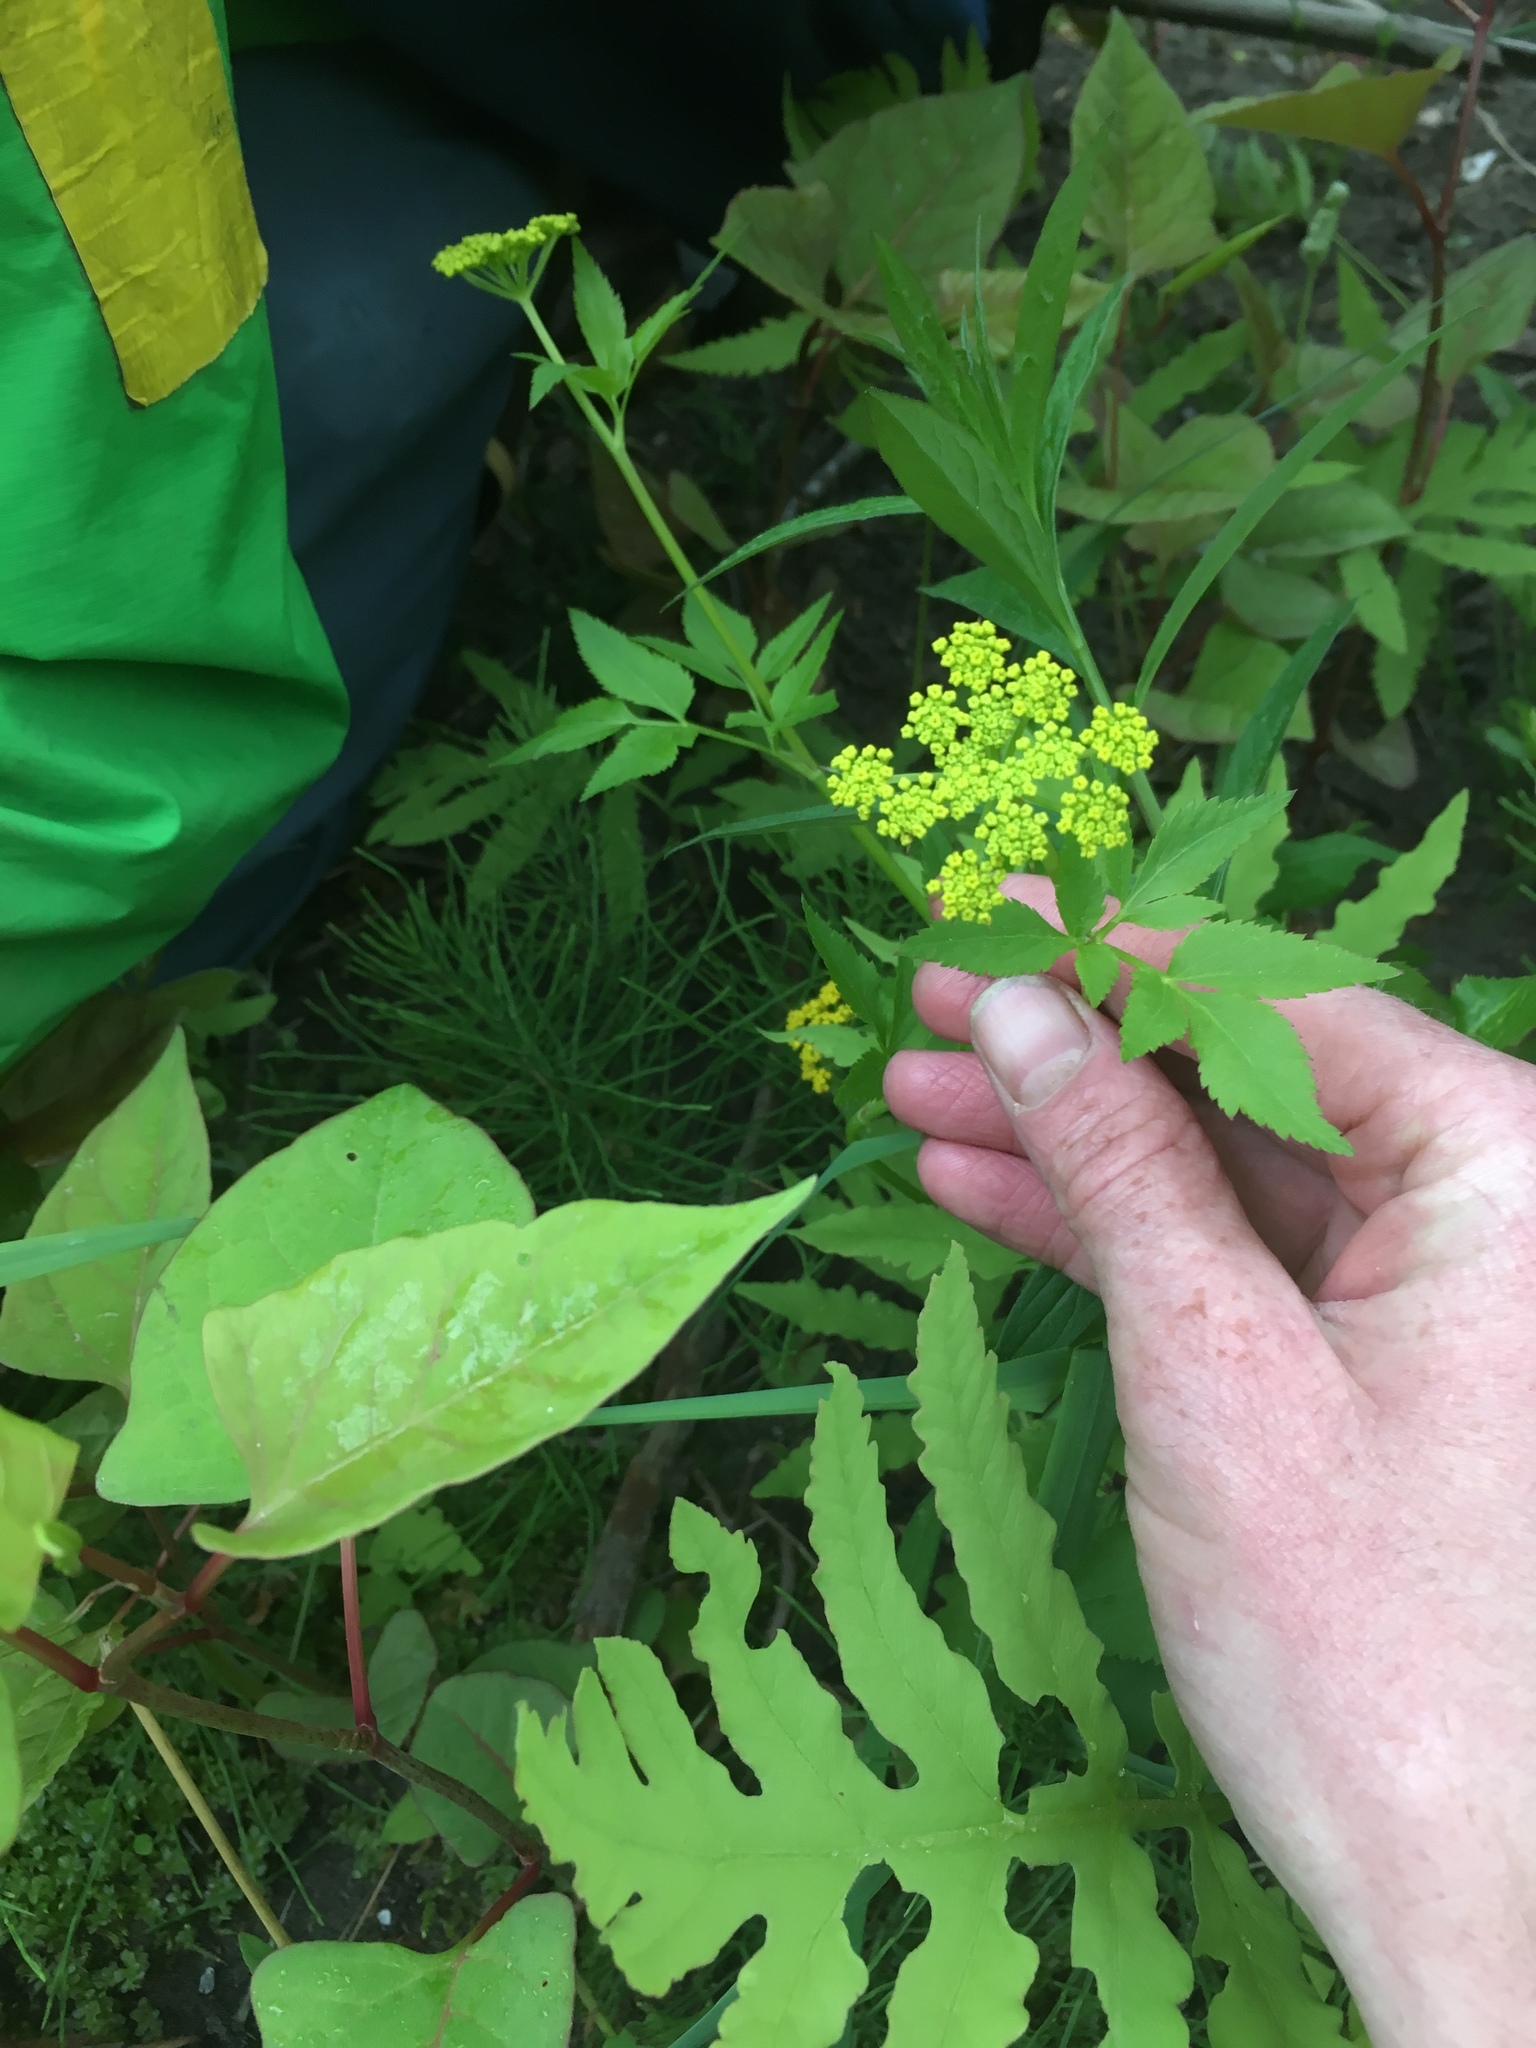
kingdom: Plantae
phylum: Tracheophyta
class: Magnoliopsida
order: Apiales
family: Apiaceae
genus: Zizia
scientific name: Zizia aurea
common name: Golden alexanders
